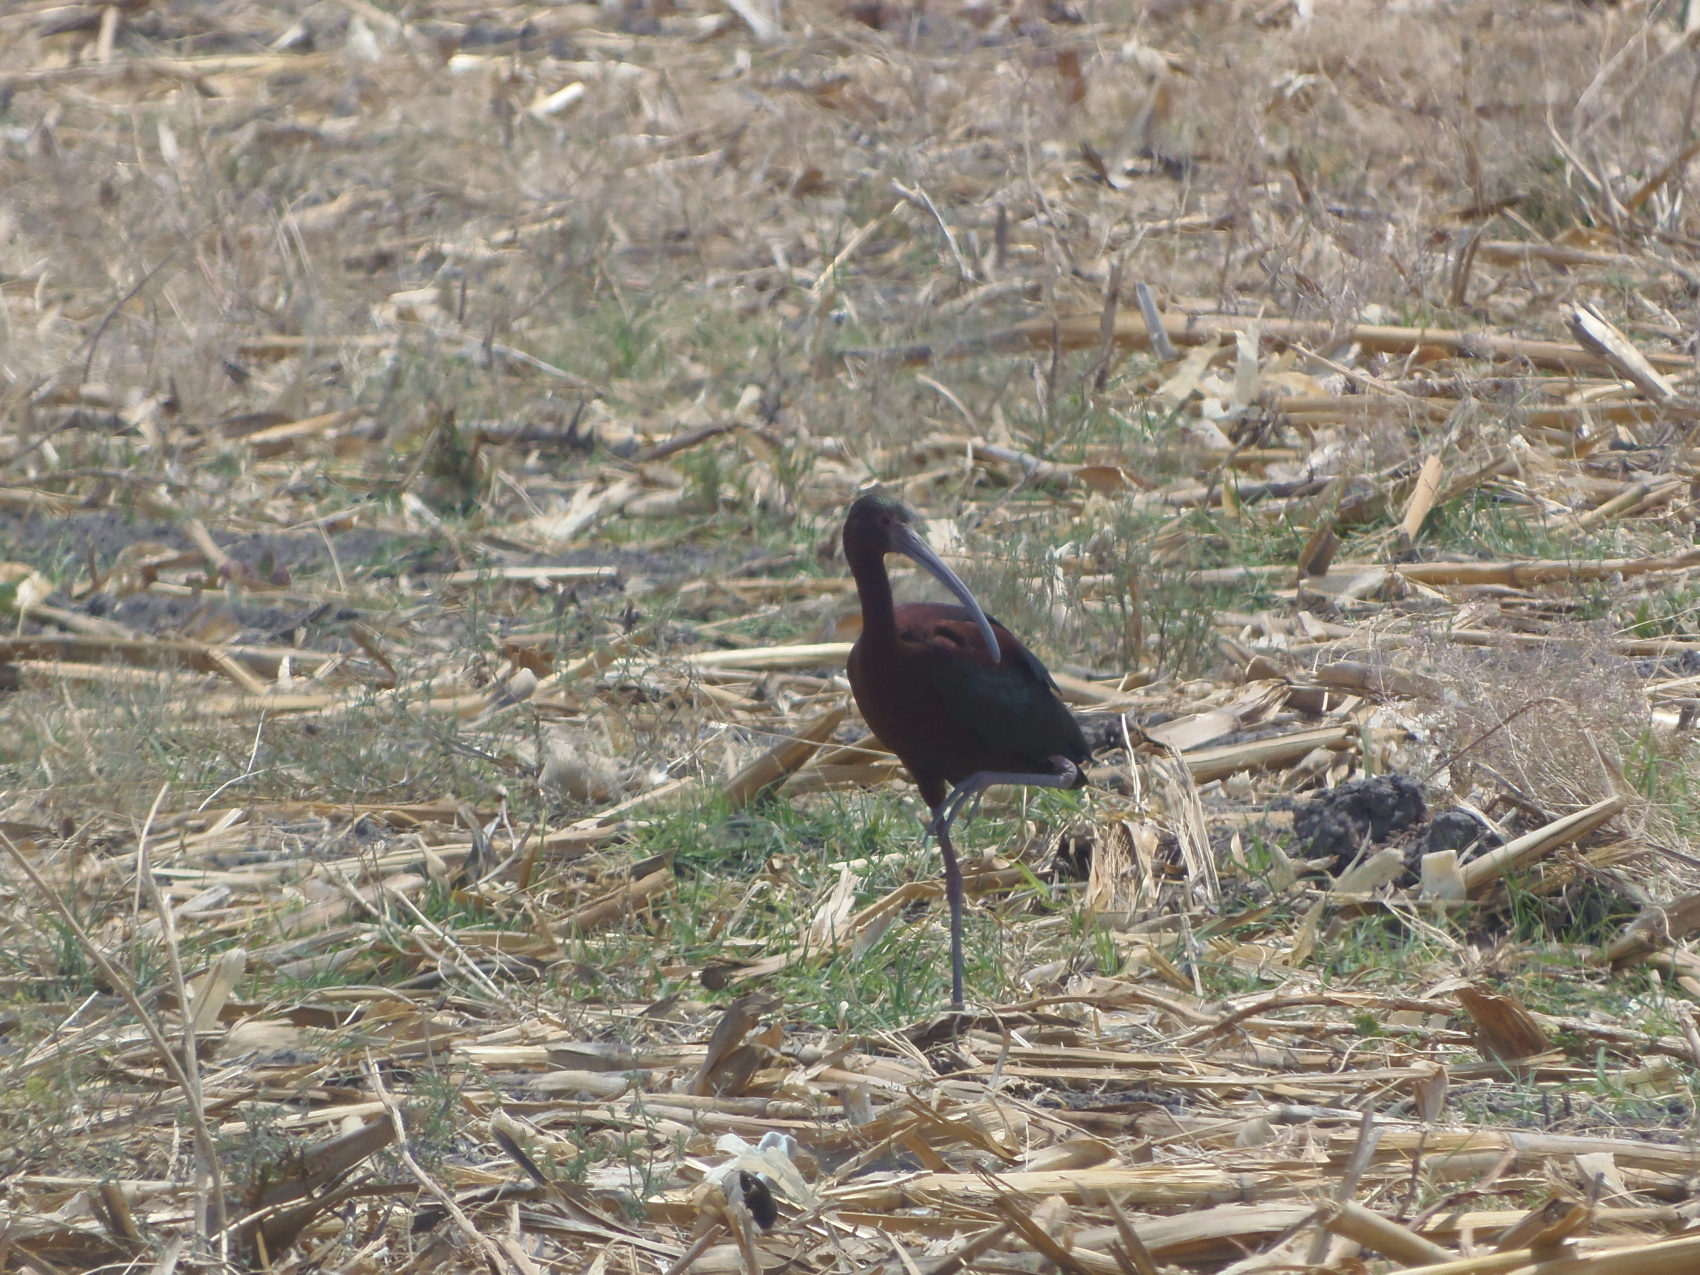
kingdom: Animalia
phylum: Chordata
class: Aves
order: Pelecaniformes
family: Threskiornithidae
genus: Plegadis
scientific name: Plegadis chihi
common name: White-faced ibis
